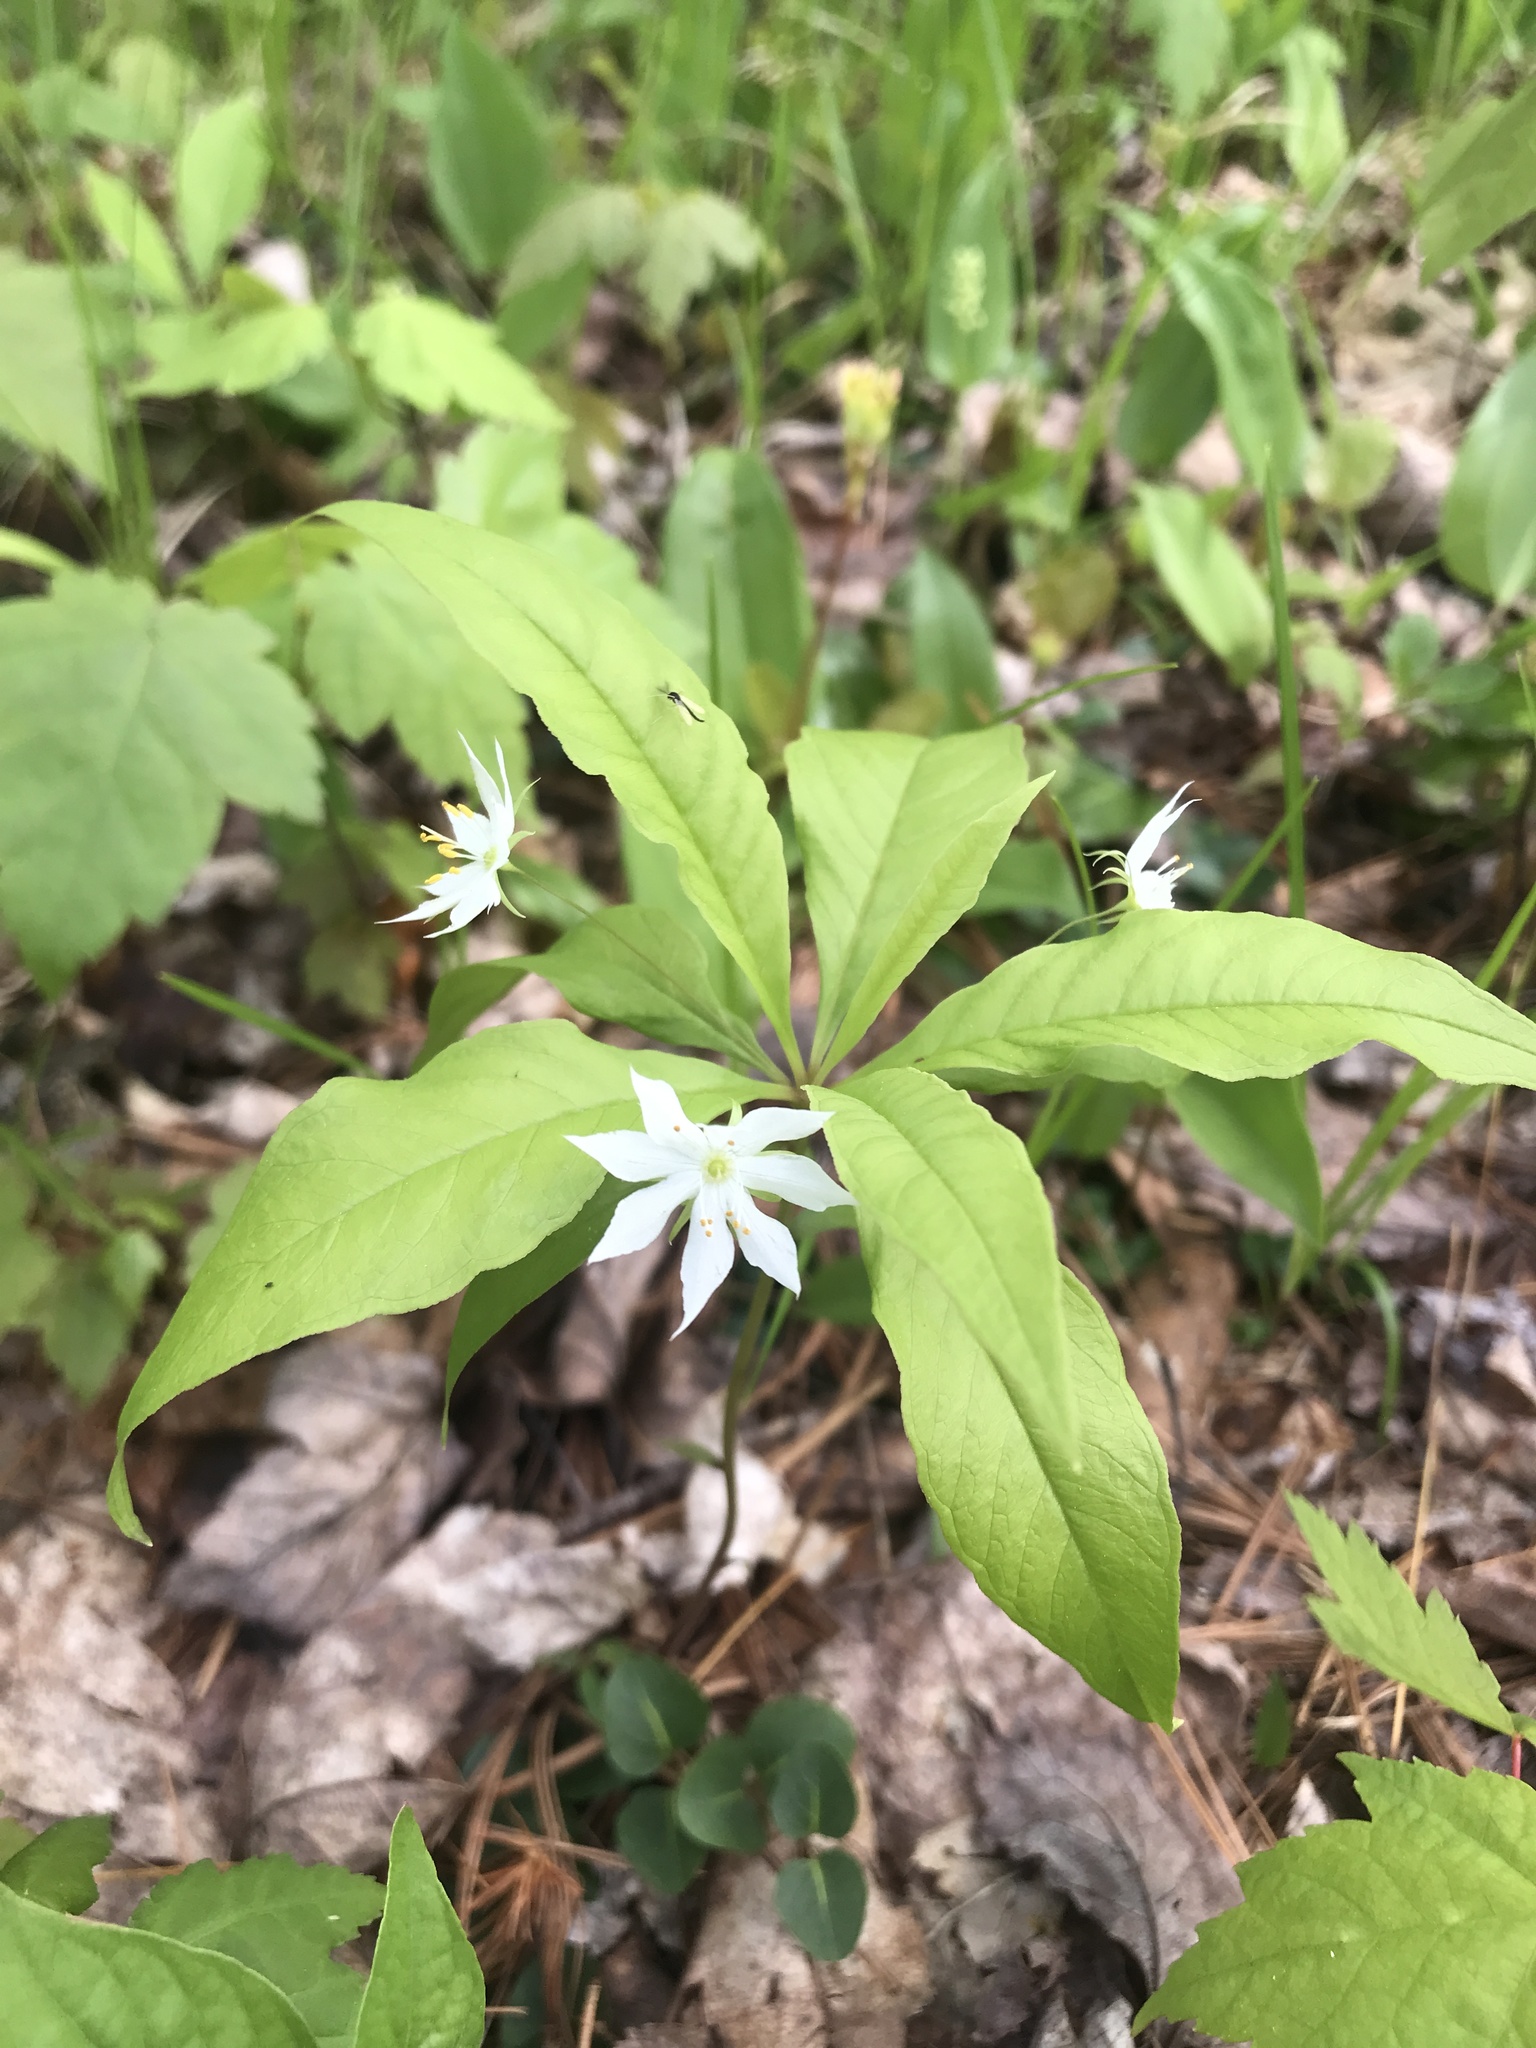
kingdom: Plantae
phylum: Tracheophyta
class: Magnoliopsida
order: Ericales
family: Primulaceae
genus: Lysimachia
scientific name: Lysimachia borealis
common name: American starflower
